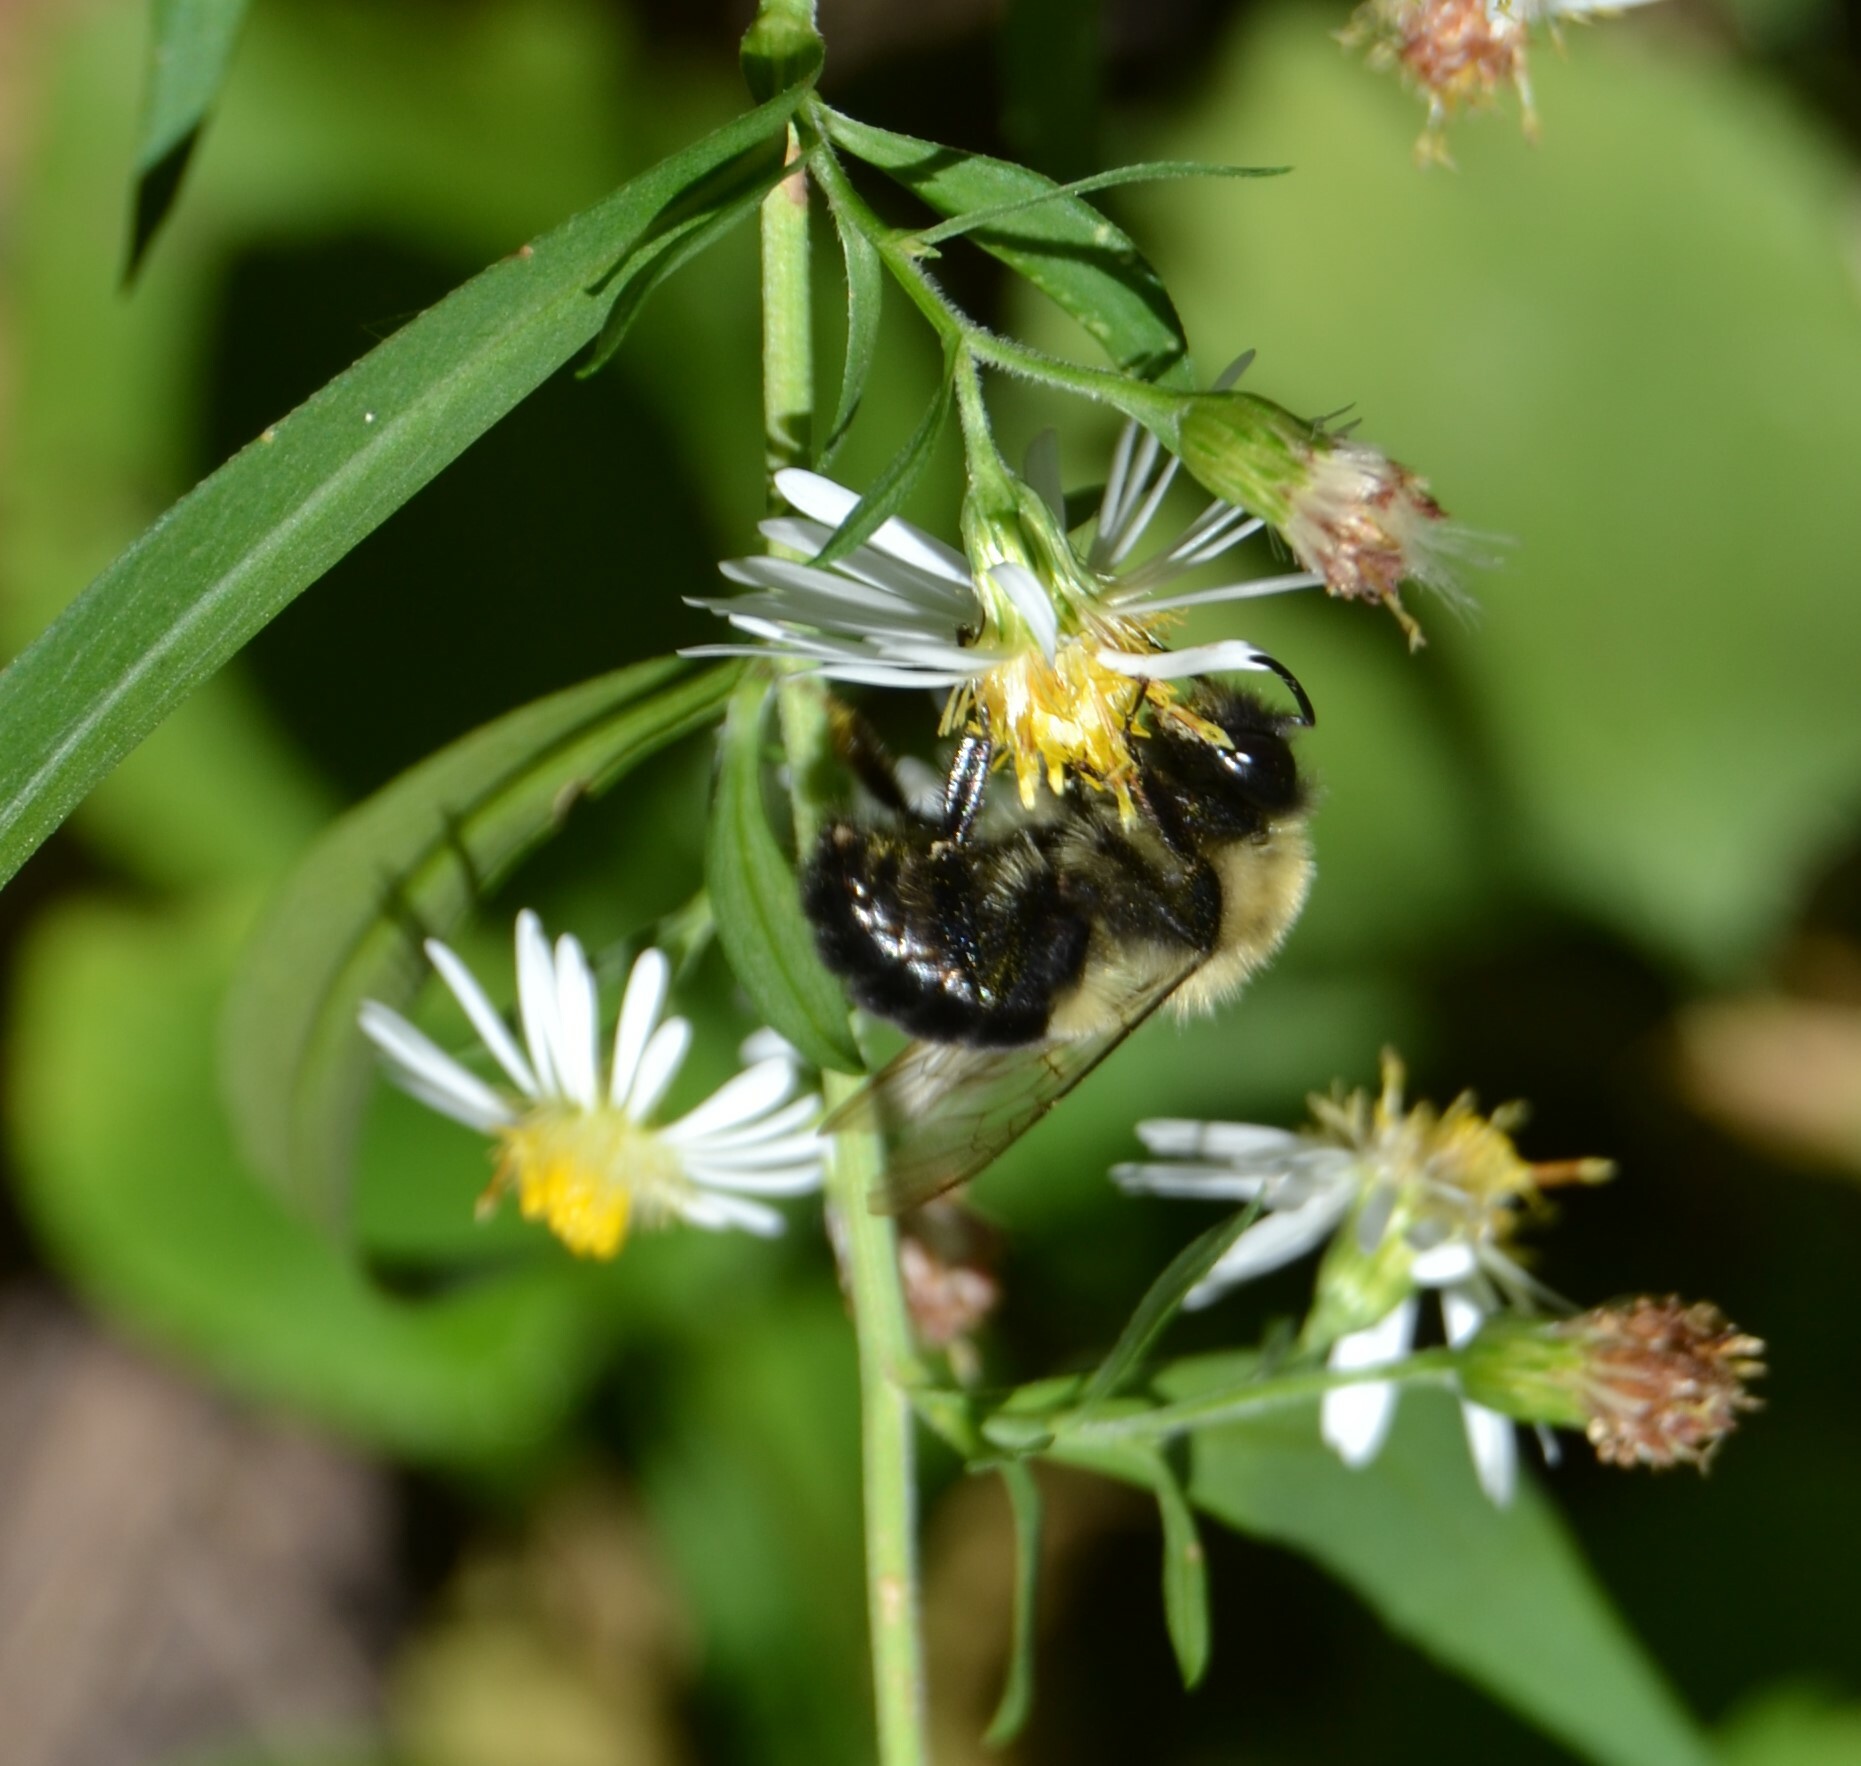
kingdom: Animalia
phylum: Arthropoda
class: Insecta
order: Hymenoptera
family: Apidae
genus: Bombus
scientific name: Bombus impatiens
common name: Common eastern bumble bee
